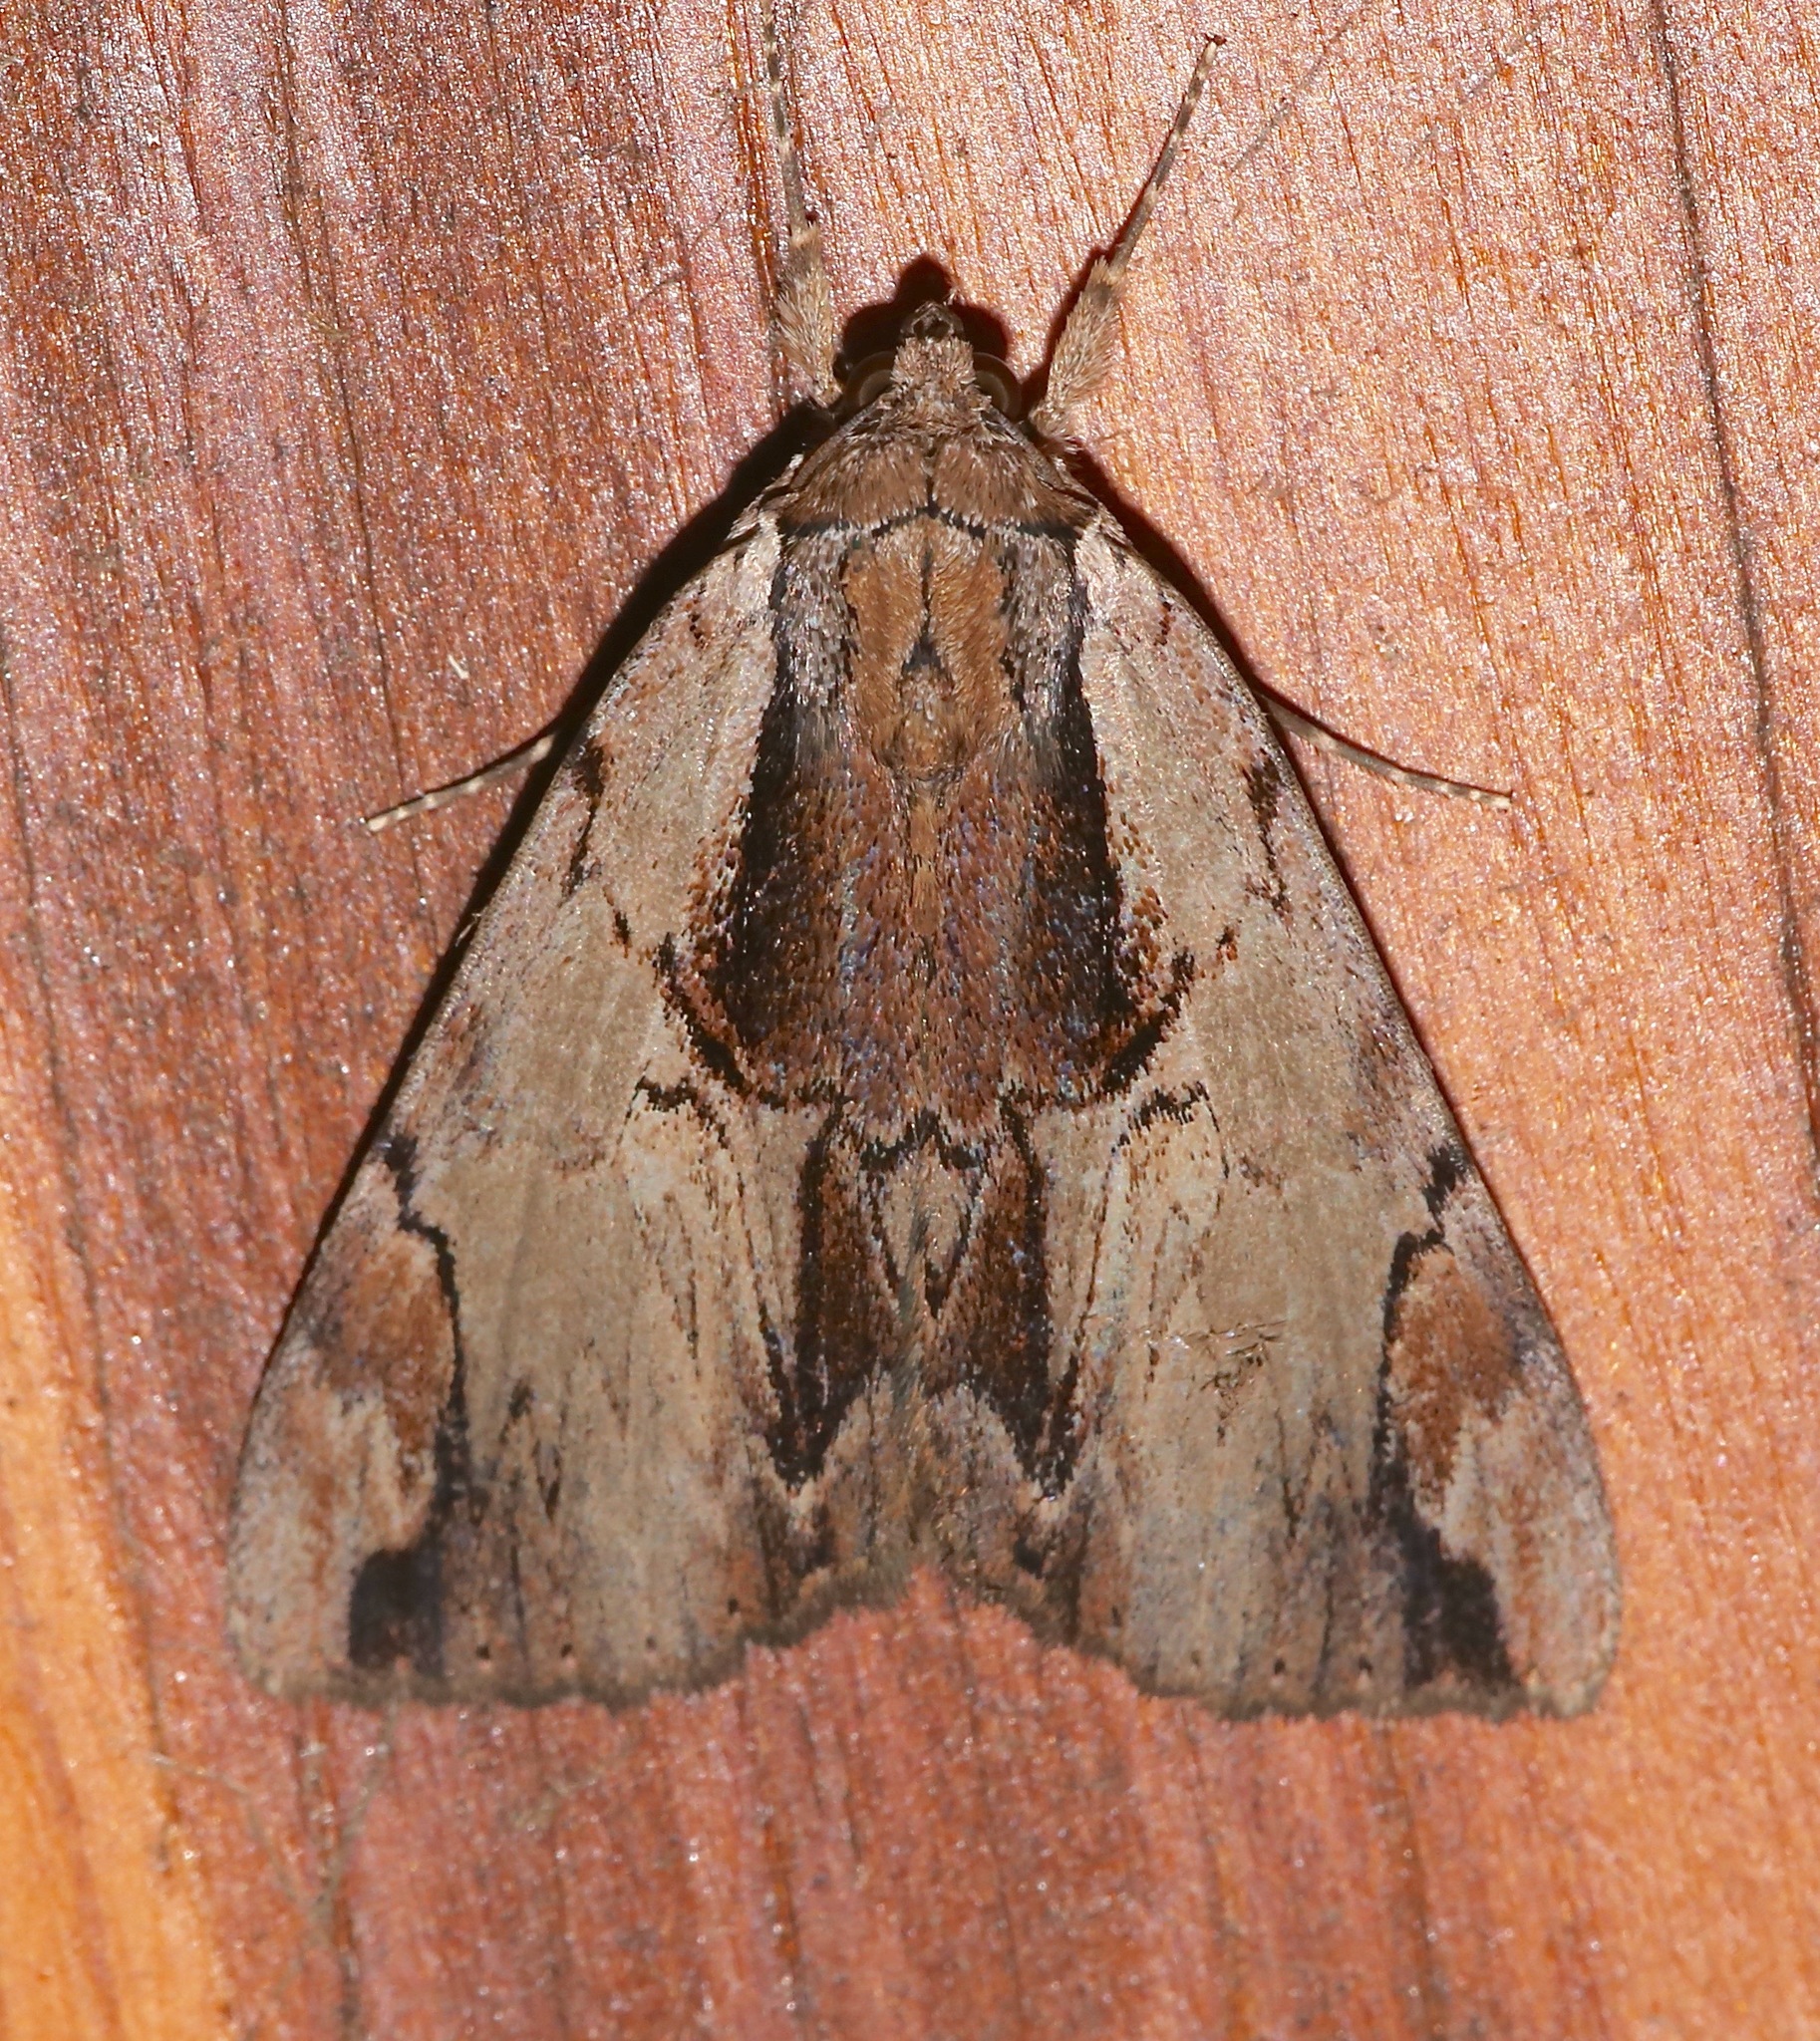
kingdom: Animalia
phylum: Arthropoda
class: Insecta
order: Lepidoptera
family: Erebidae
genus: Catocala
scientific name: Catocala ultronia
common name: Ultronia underwing
